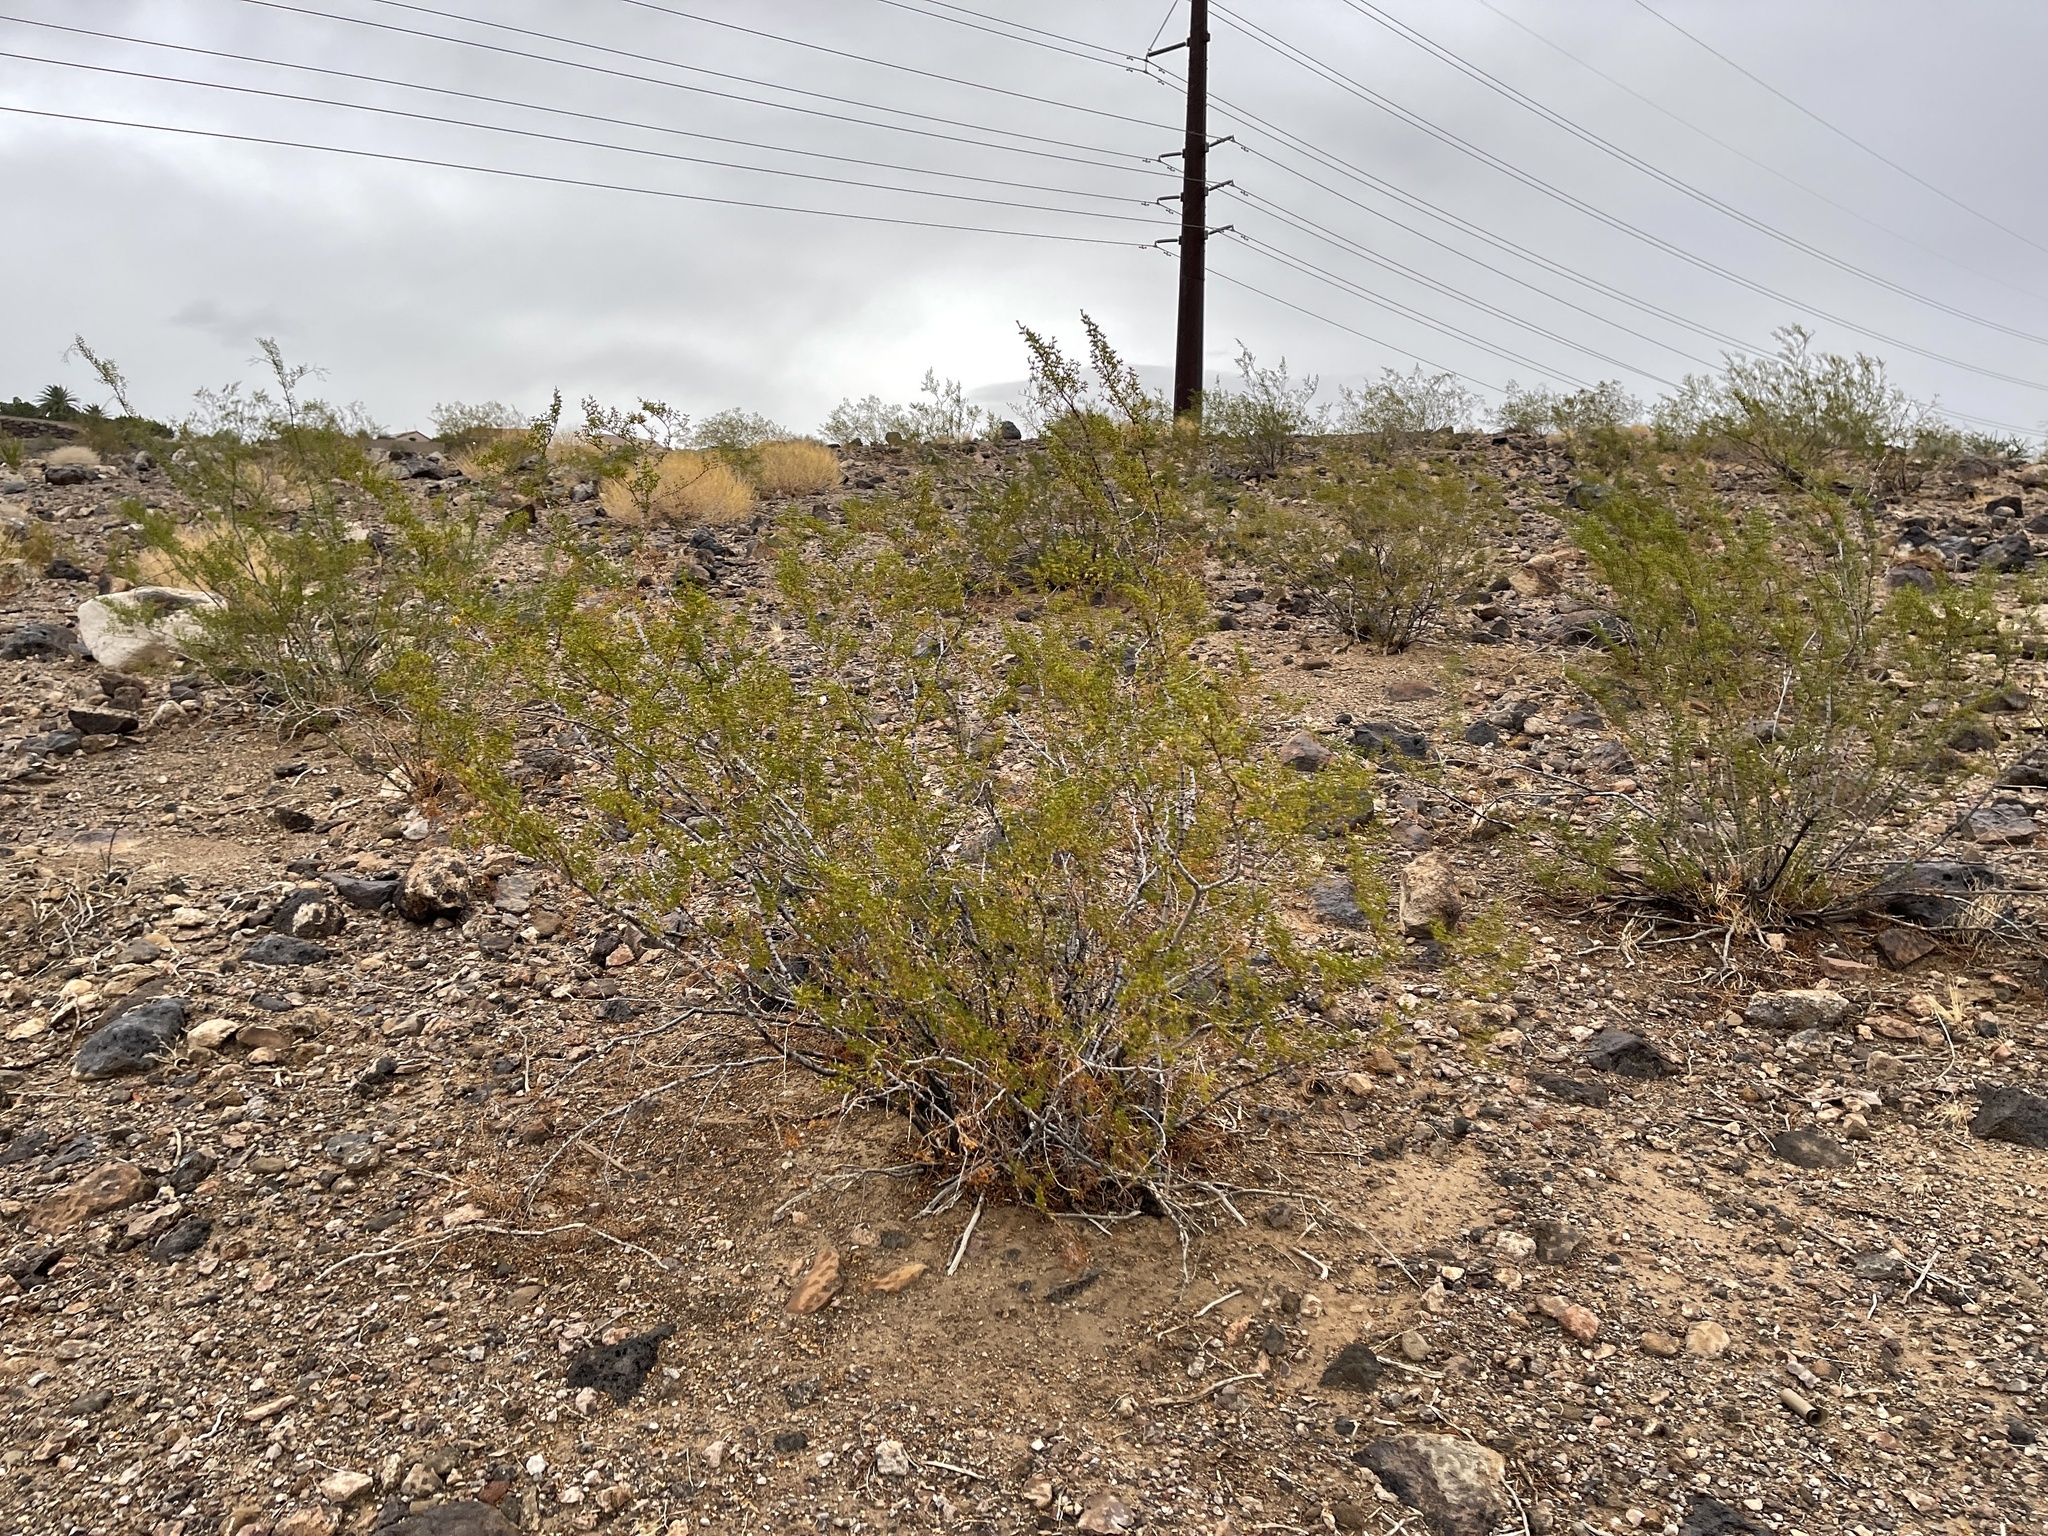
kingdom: Plantae
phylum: Tracheophyta
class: Magnoliopsida
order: Zygophyllales
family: Zygophyllaceae
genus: Larrea
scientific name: Larrea tridentata
